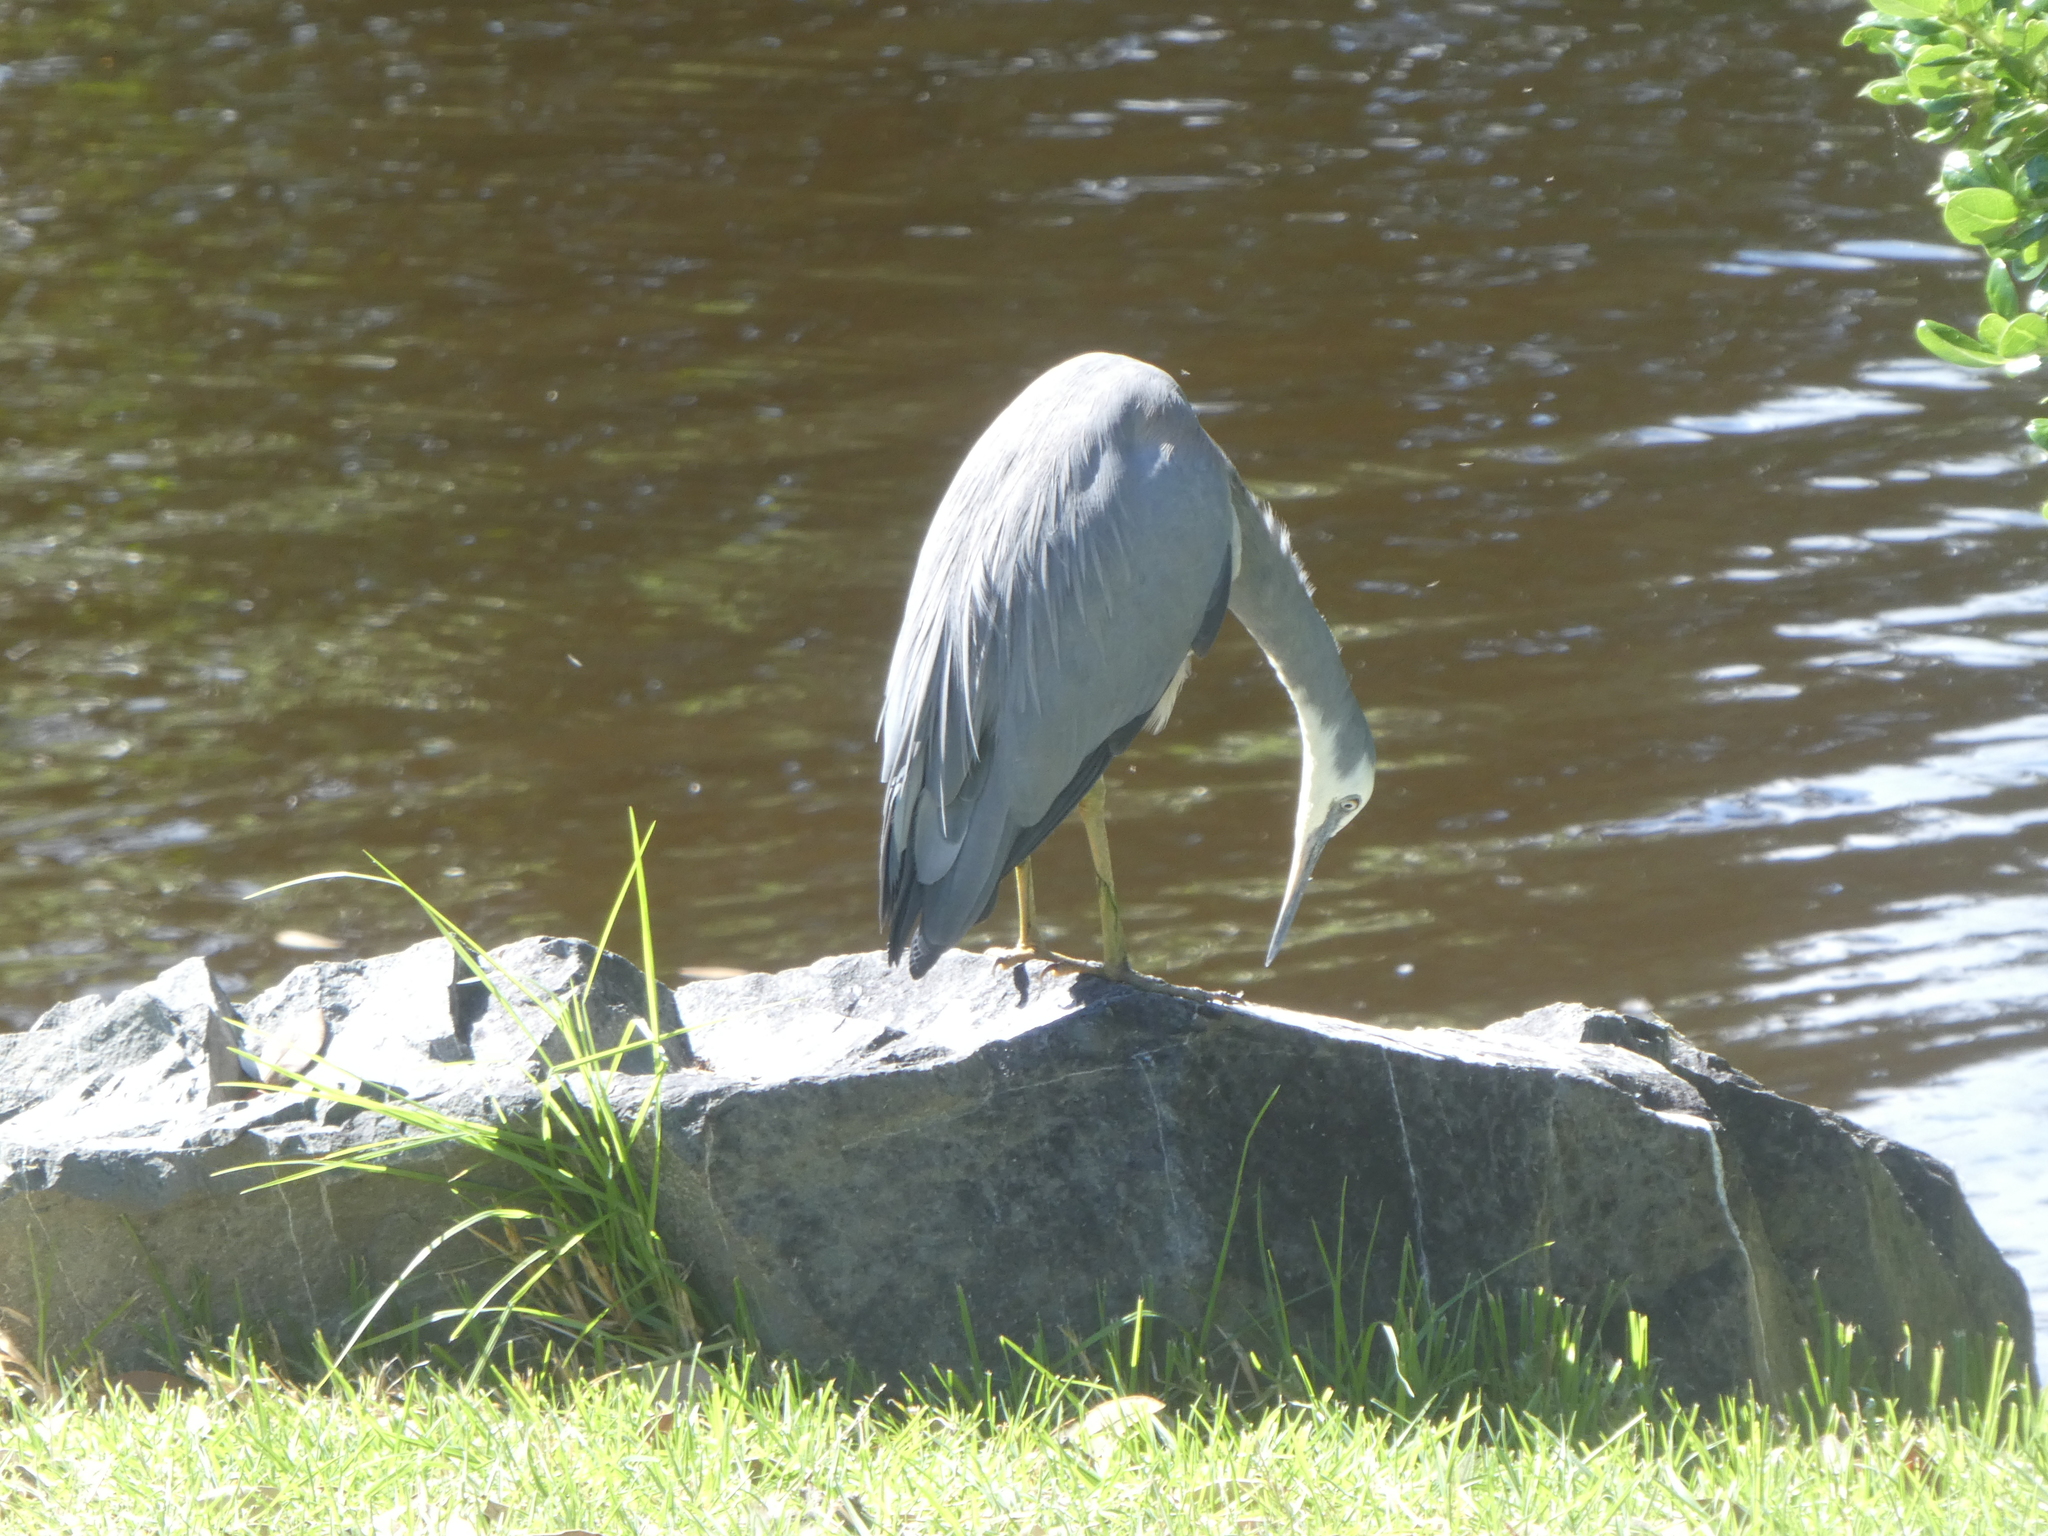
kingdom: Animalia
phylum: Chordata
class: Aves
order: Pelecaniformes
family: Ardeidae
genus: Egretta
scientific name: Egretta novaehollandiae
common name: White-faced heron
